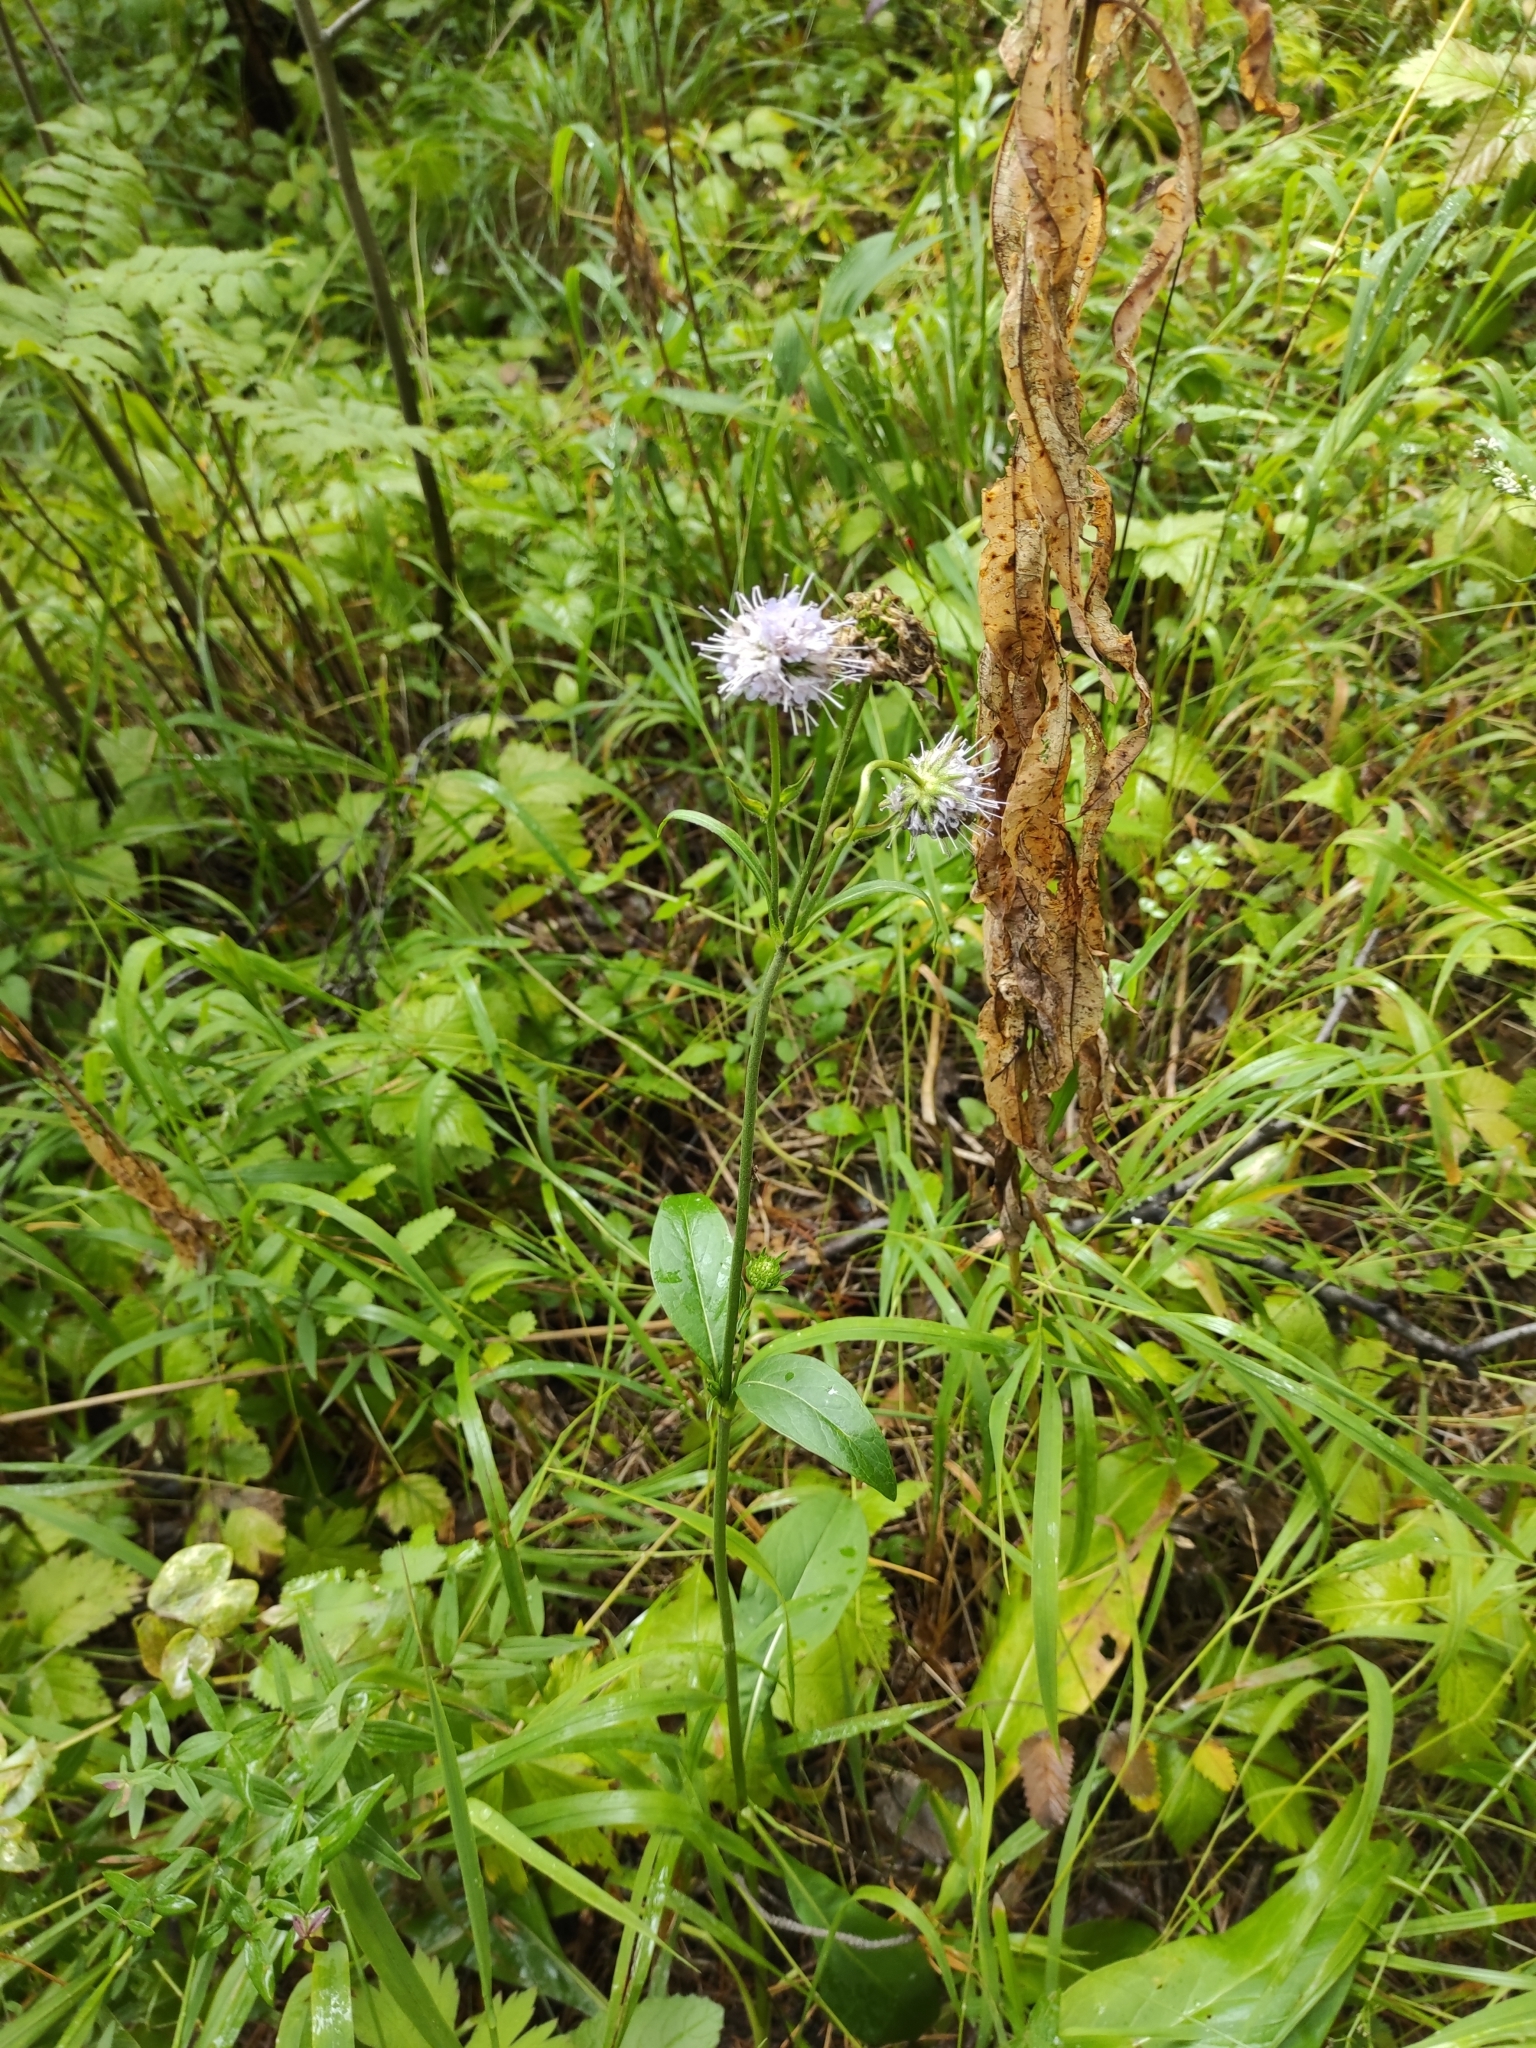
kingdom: Plantae
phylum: Tracheophyta
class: Magnoliopsida
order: Dipsacales
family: Caprifoliaceae
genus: Succisa
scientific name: Succisa pratensis
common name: Devil's-bit
